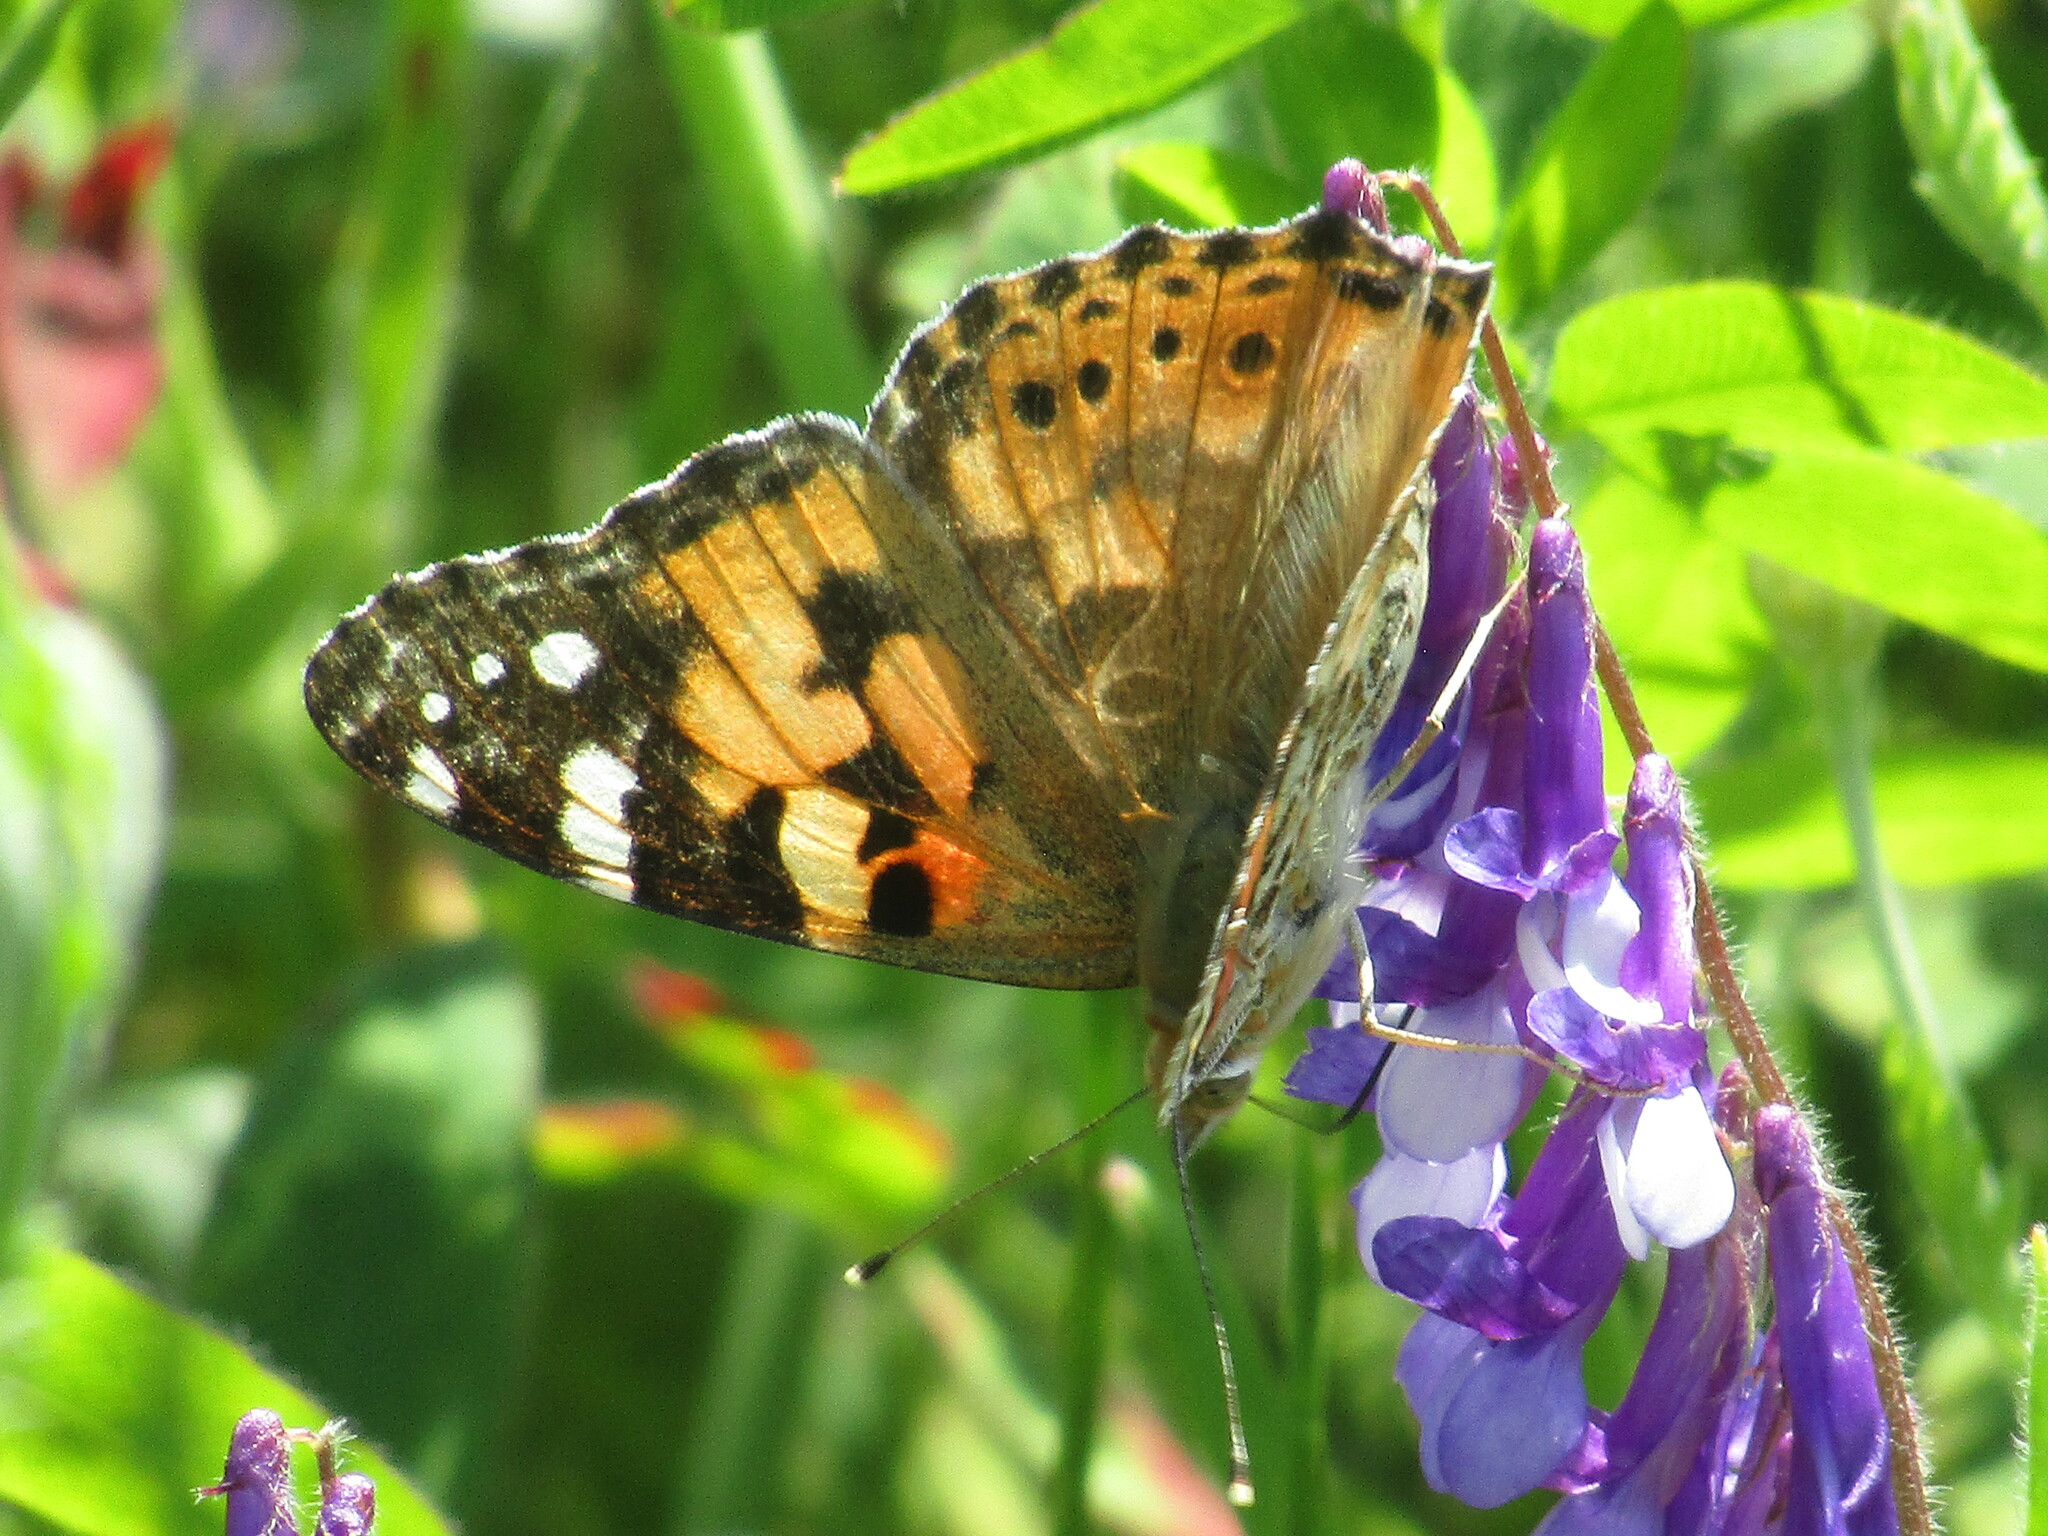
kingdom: Animalia
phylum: Arthropoda
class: Insecta
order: Lepidoptera
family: Nymphalidae
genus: Vanessa
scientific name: Vanessa cardui
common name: Painted lady
